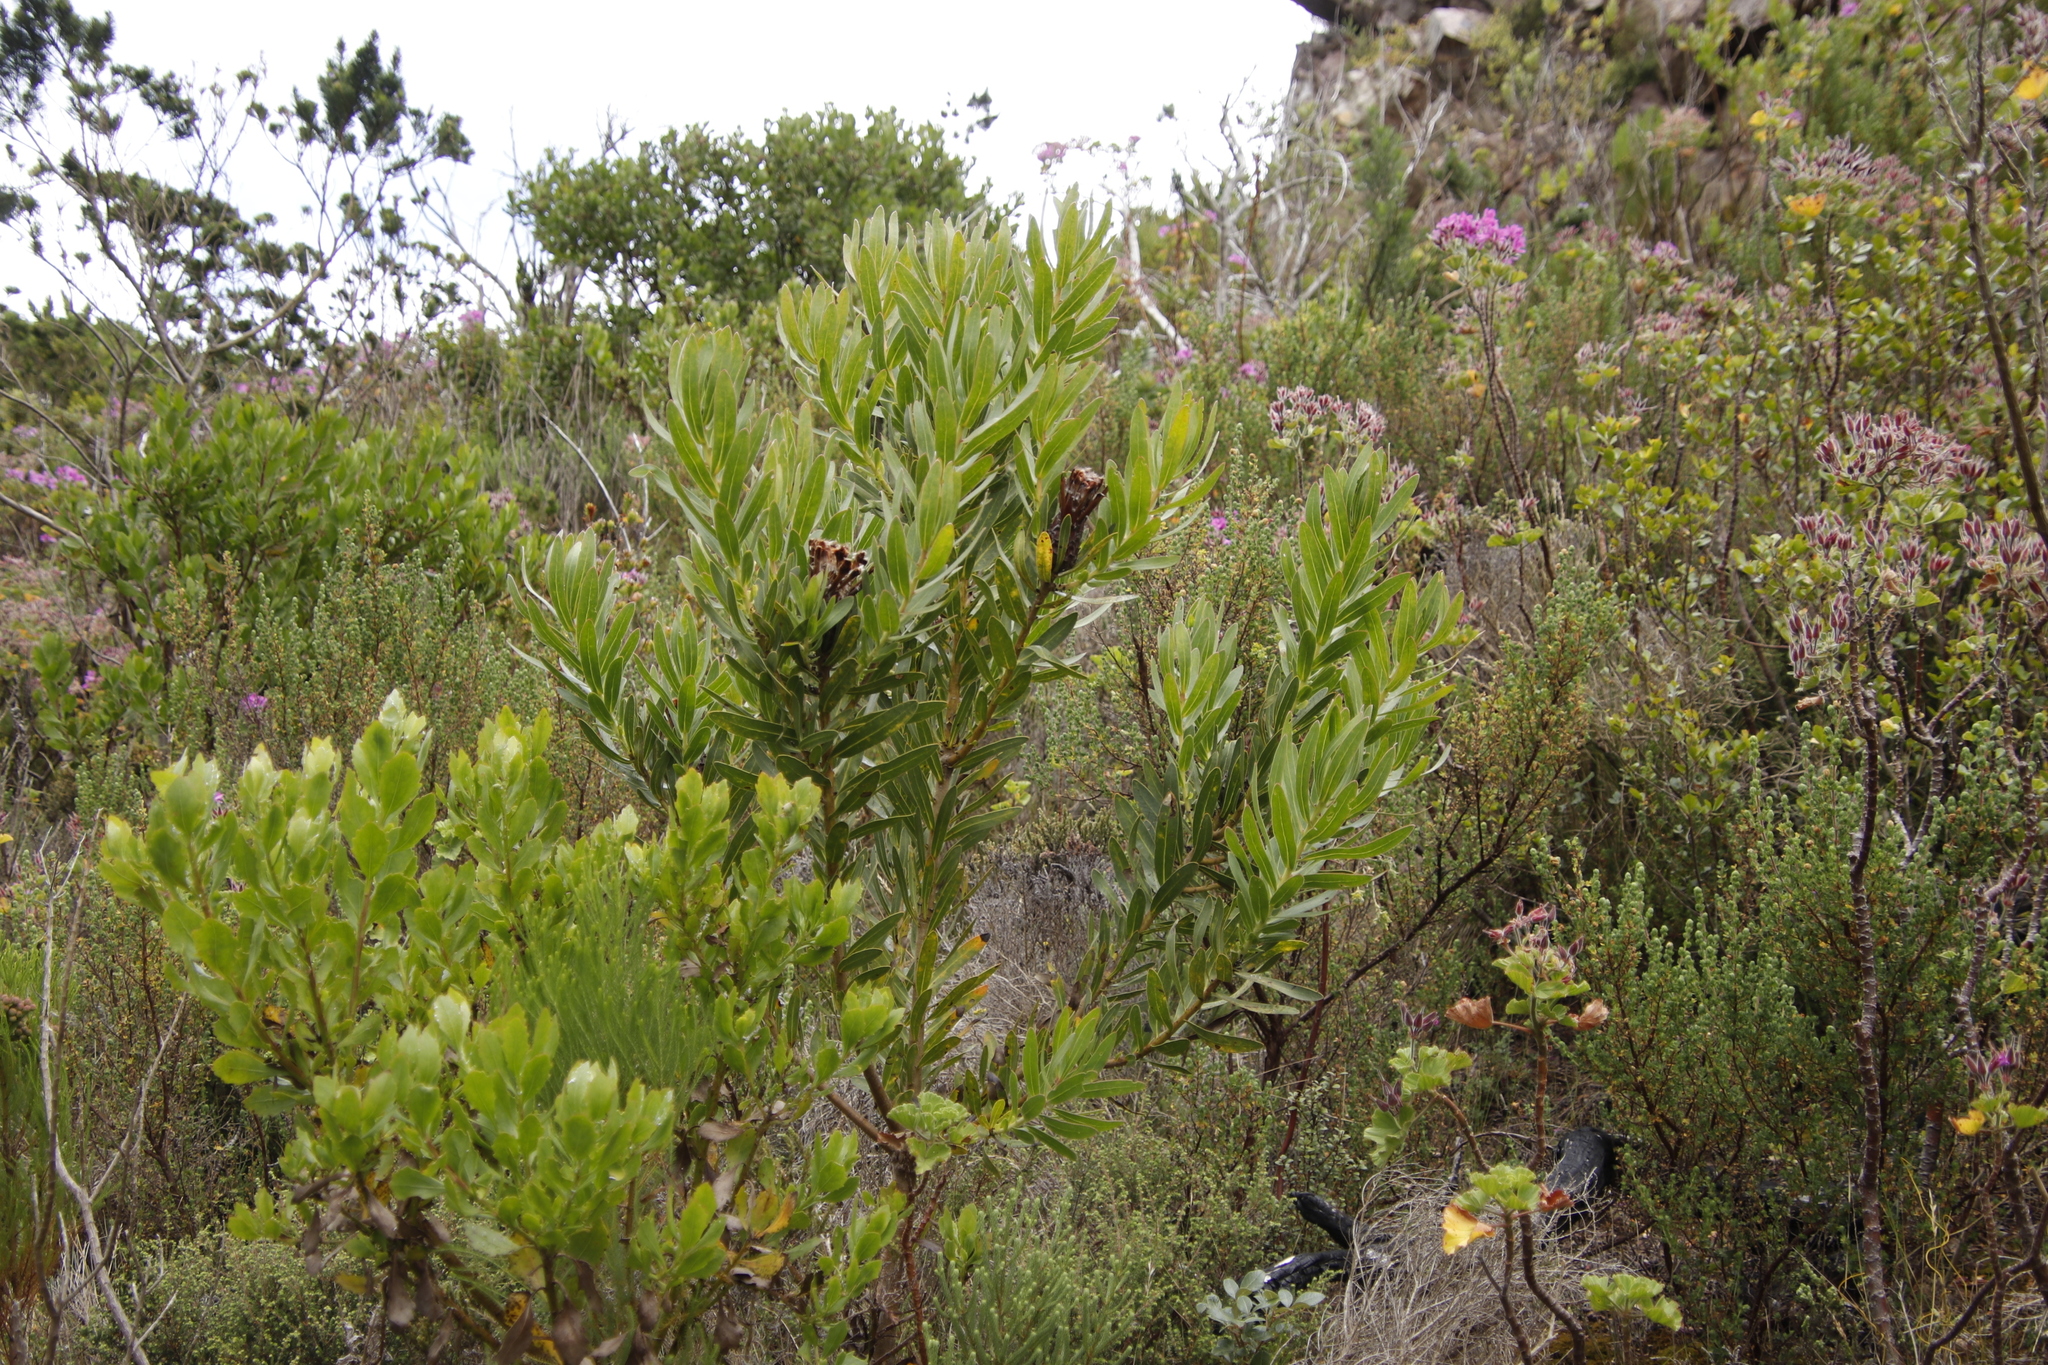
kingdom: Plantae
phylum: Tracheophyta
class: Magnoliopsida
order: Proteales
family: Proteaceae
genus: Protea
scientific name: Protea lepidocarpodendron
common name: Black-bearded protea
